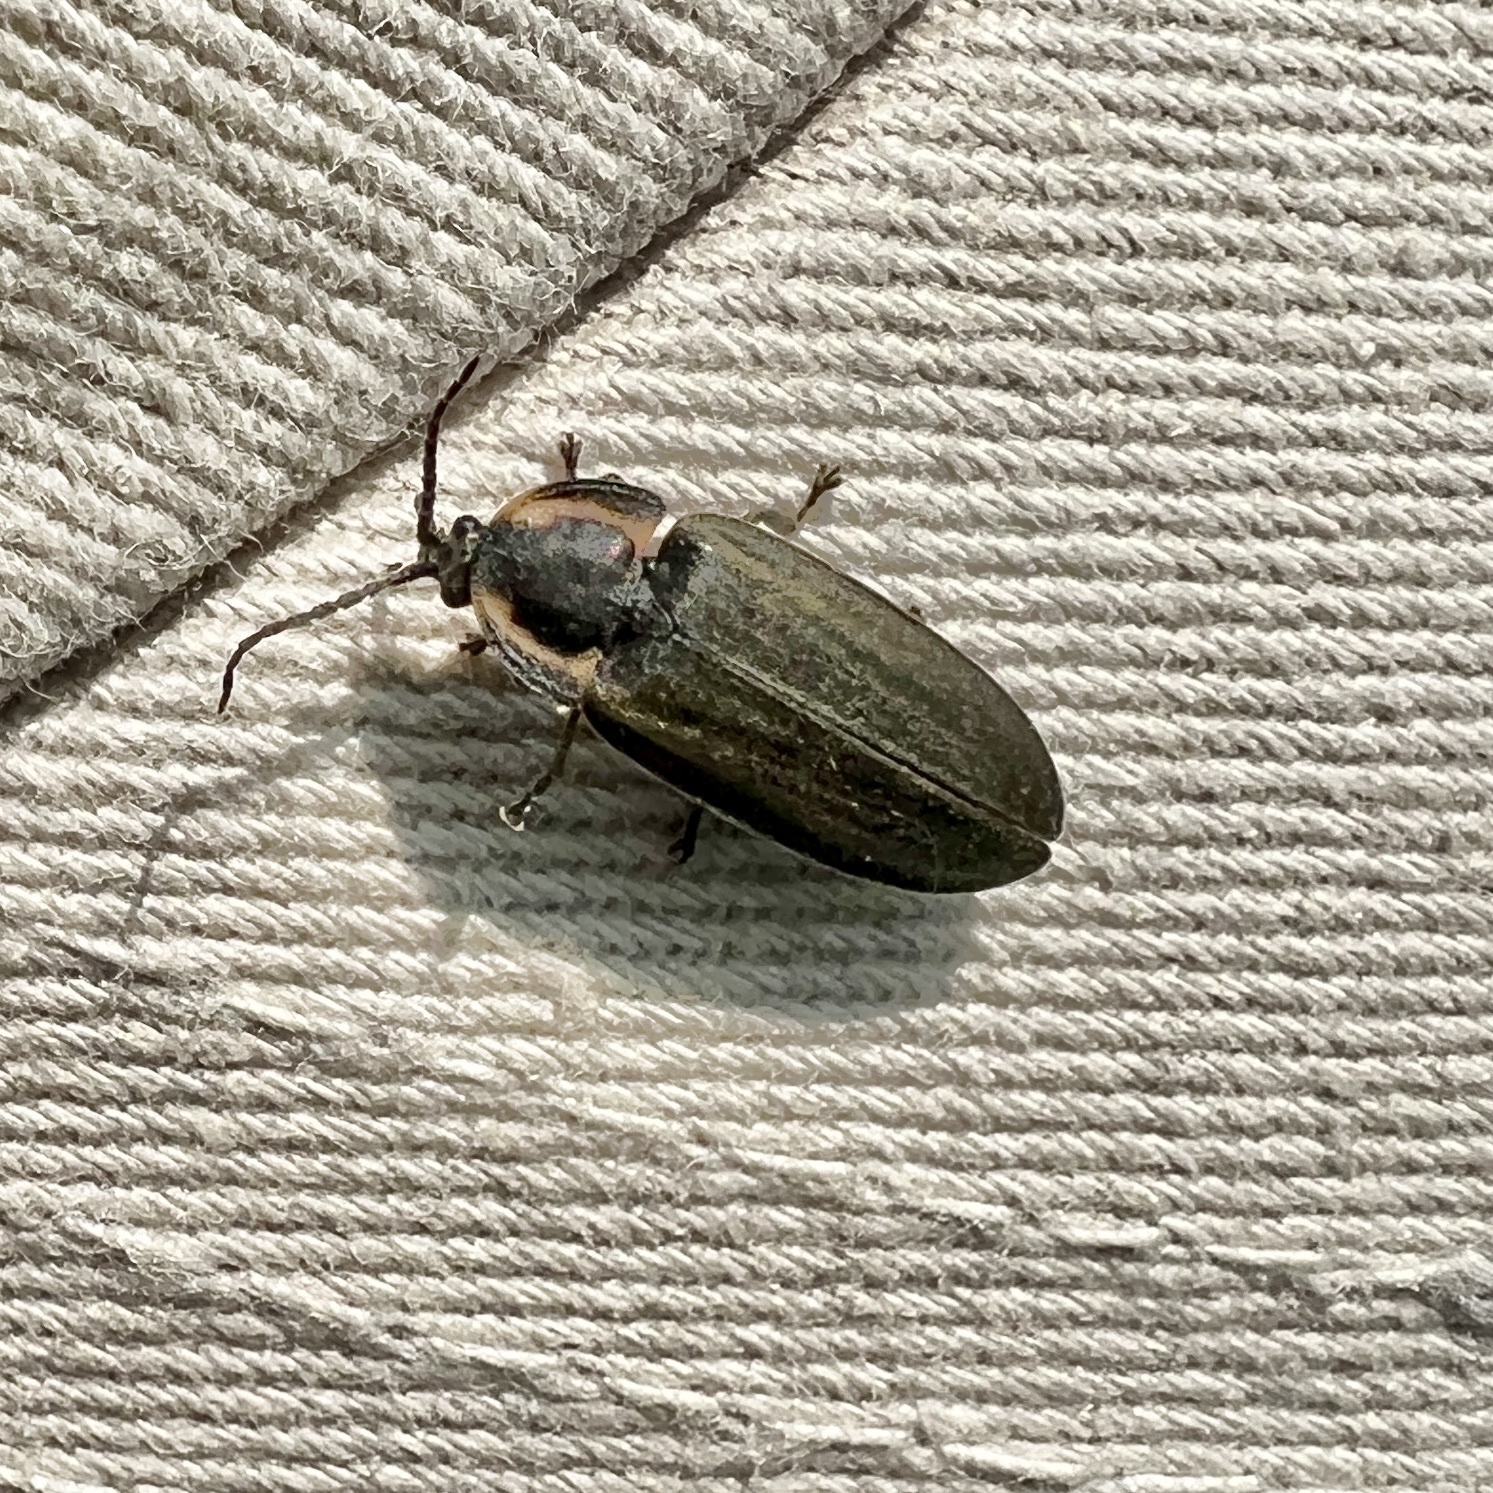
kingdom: Animalia
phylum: Arthropoda
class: Insecta
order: Coleoptera
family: Lampyridae
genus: Photinus
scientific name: Photinus corrusca
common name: Winter firefly
